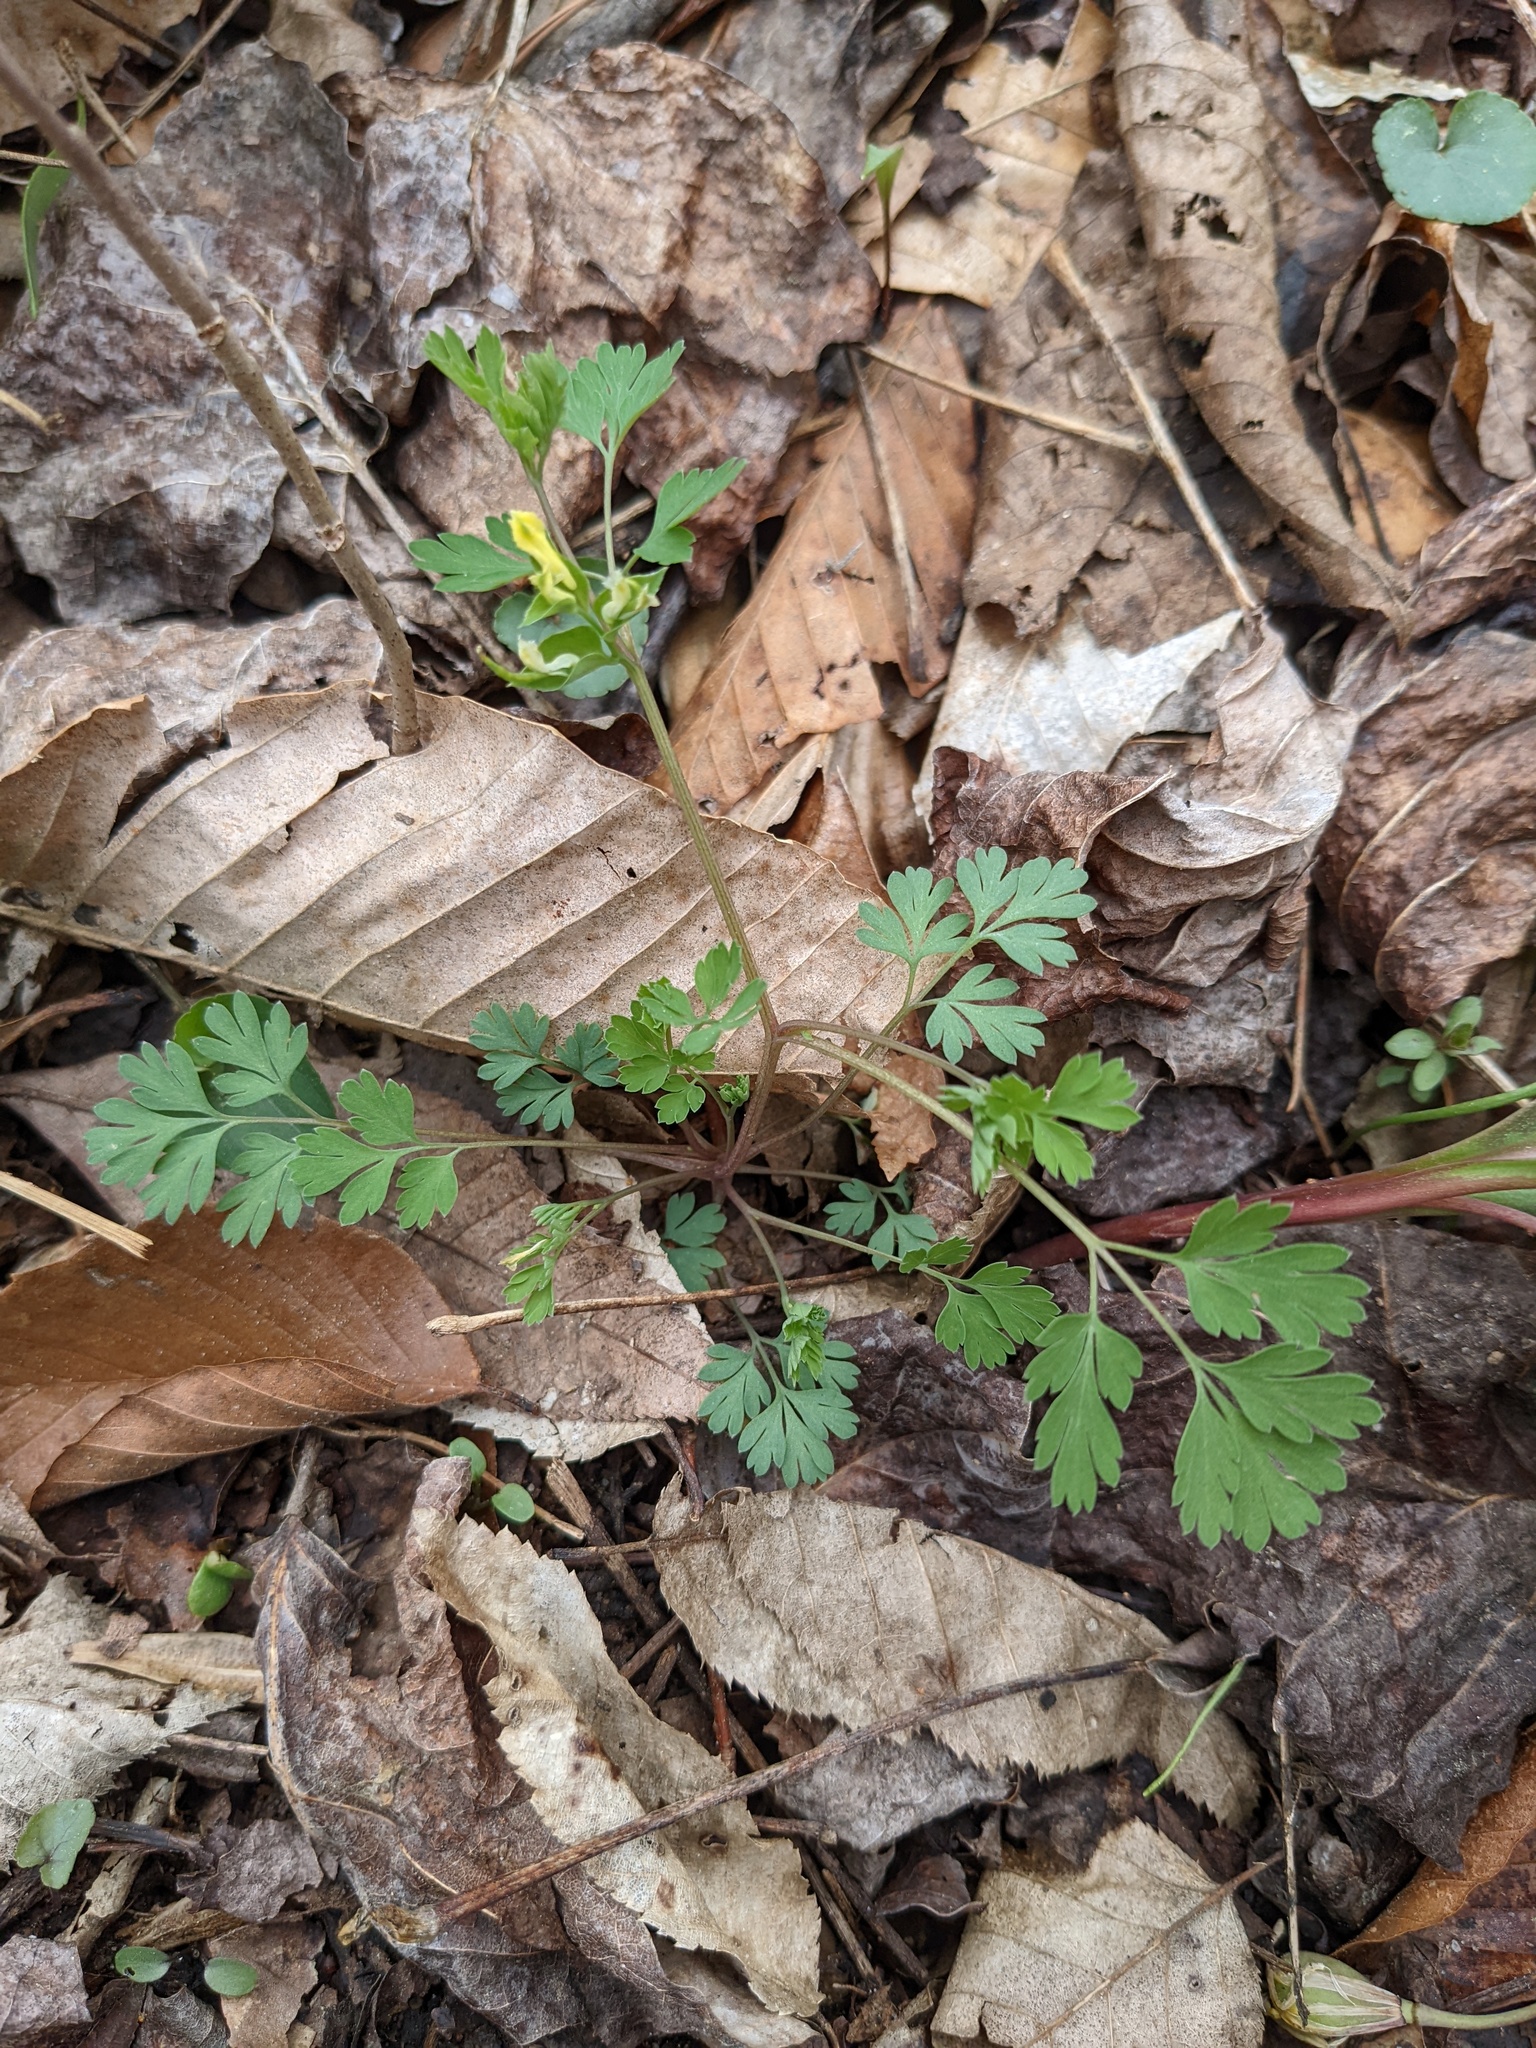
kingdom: Plantae
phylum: Tracheophyta
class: Magnoliopsida
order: Ranunculales
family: Papaveraceae
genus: Corydalis
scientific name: Corydalis flavula
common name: Yellow corydalis
